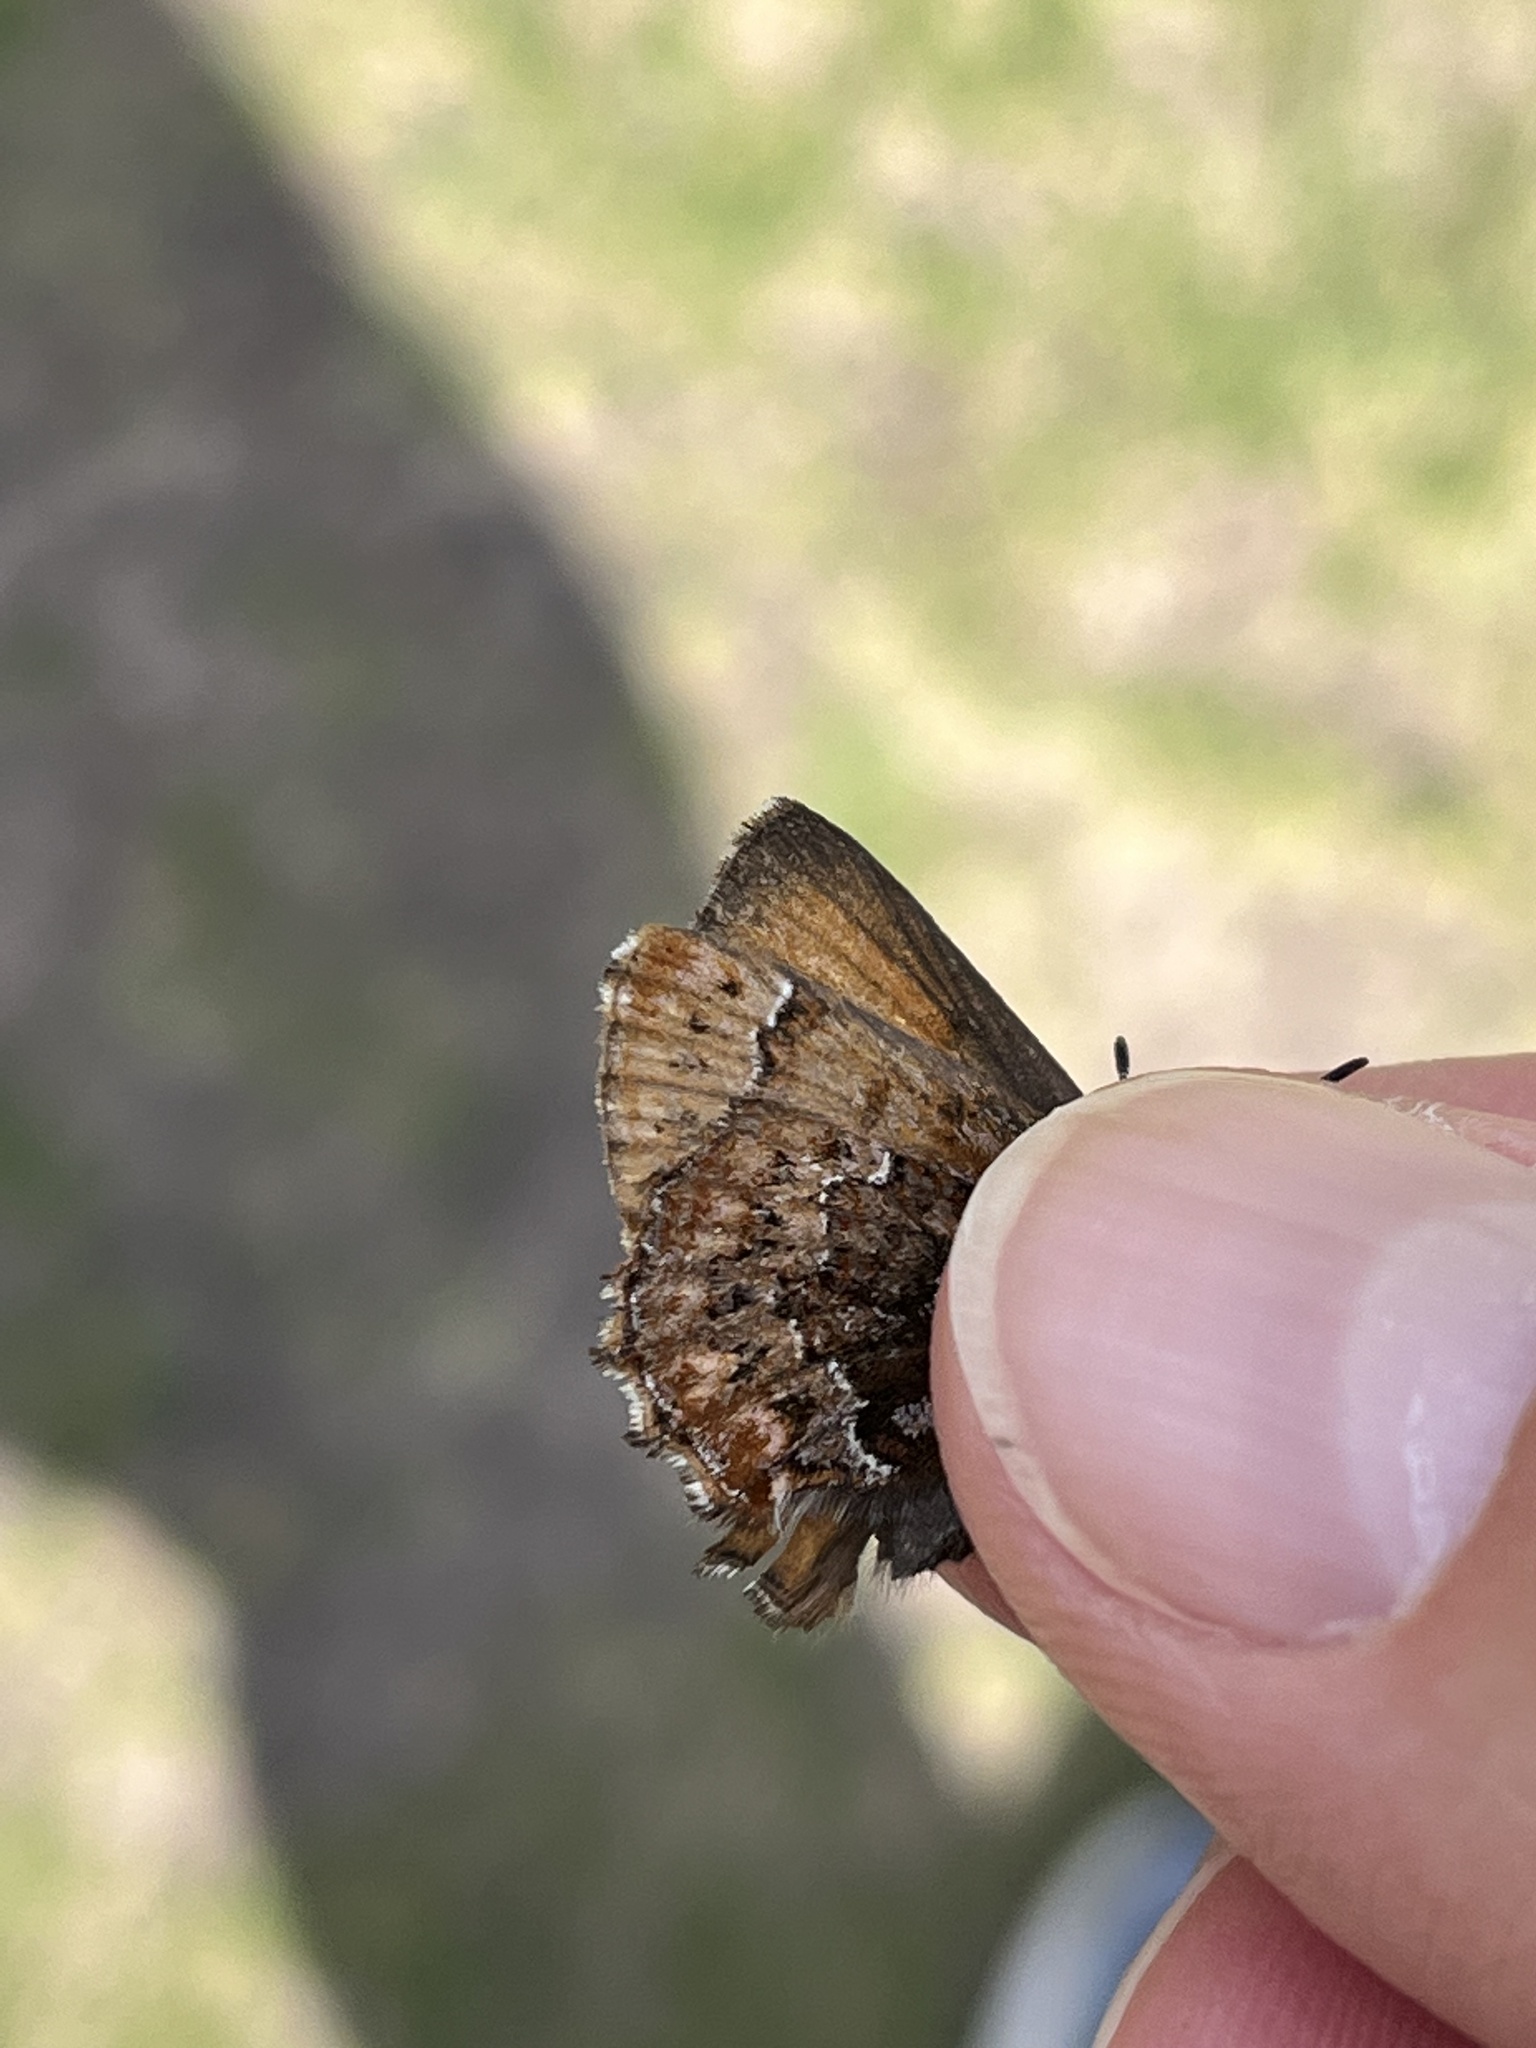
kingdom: Animalia
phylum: Arthropoda
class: Insecta
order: Lepidoptera
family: Lycaenidae
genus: Incisalia
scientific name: Incisalia eryphon
